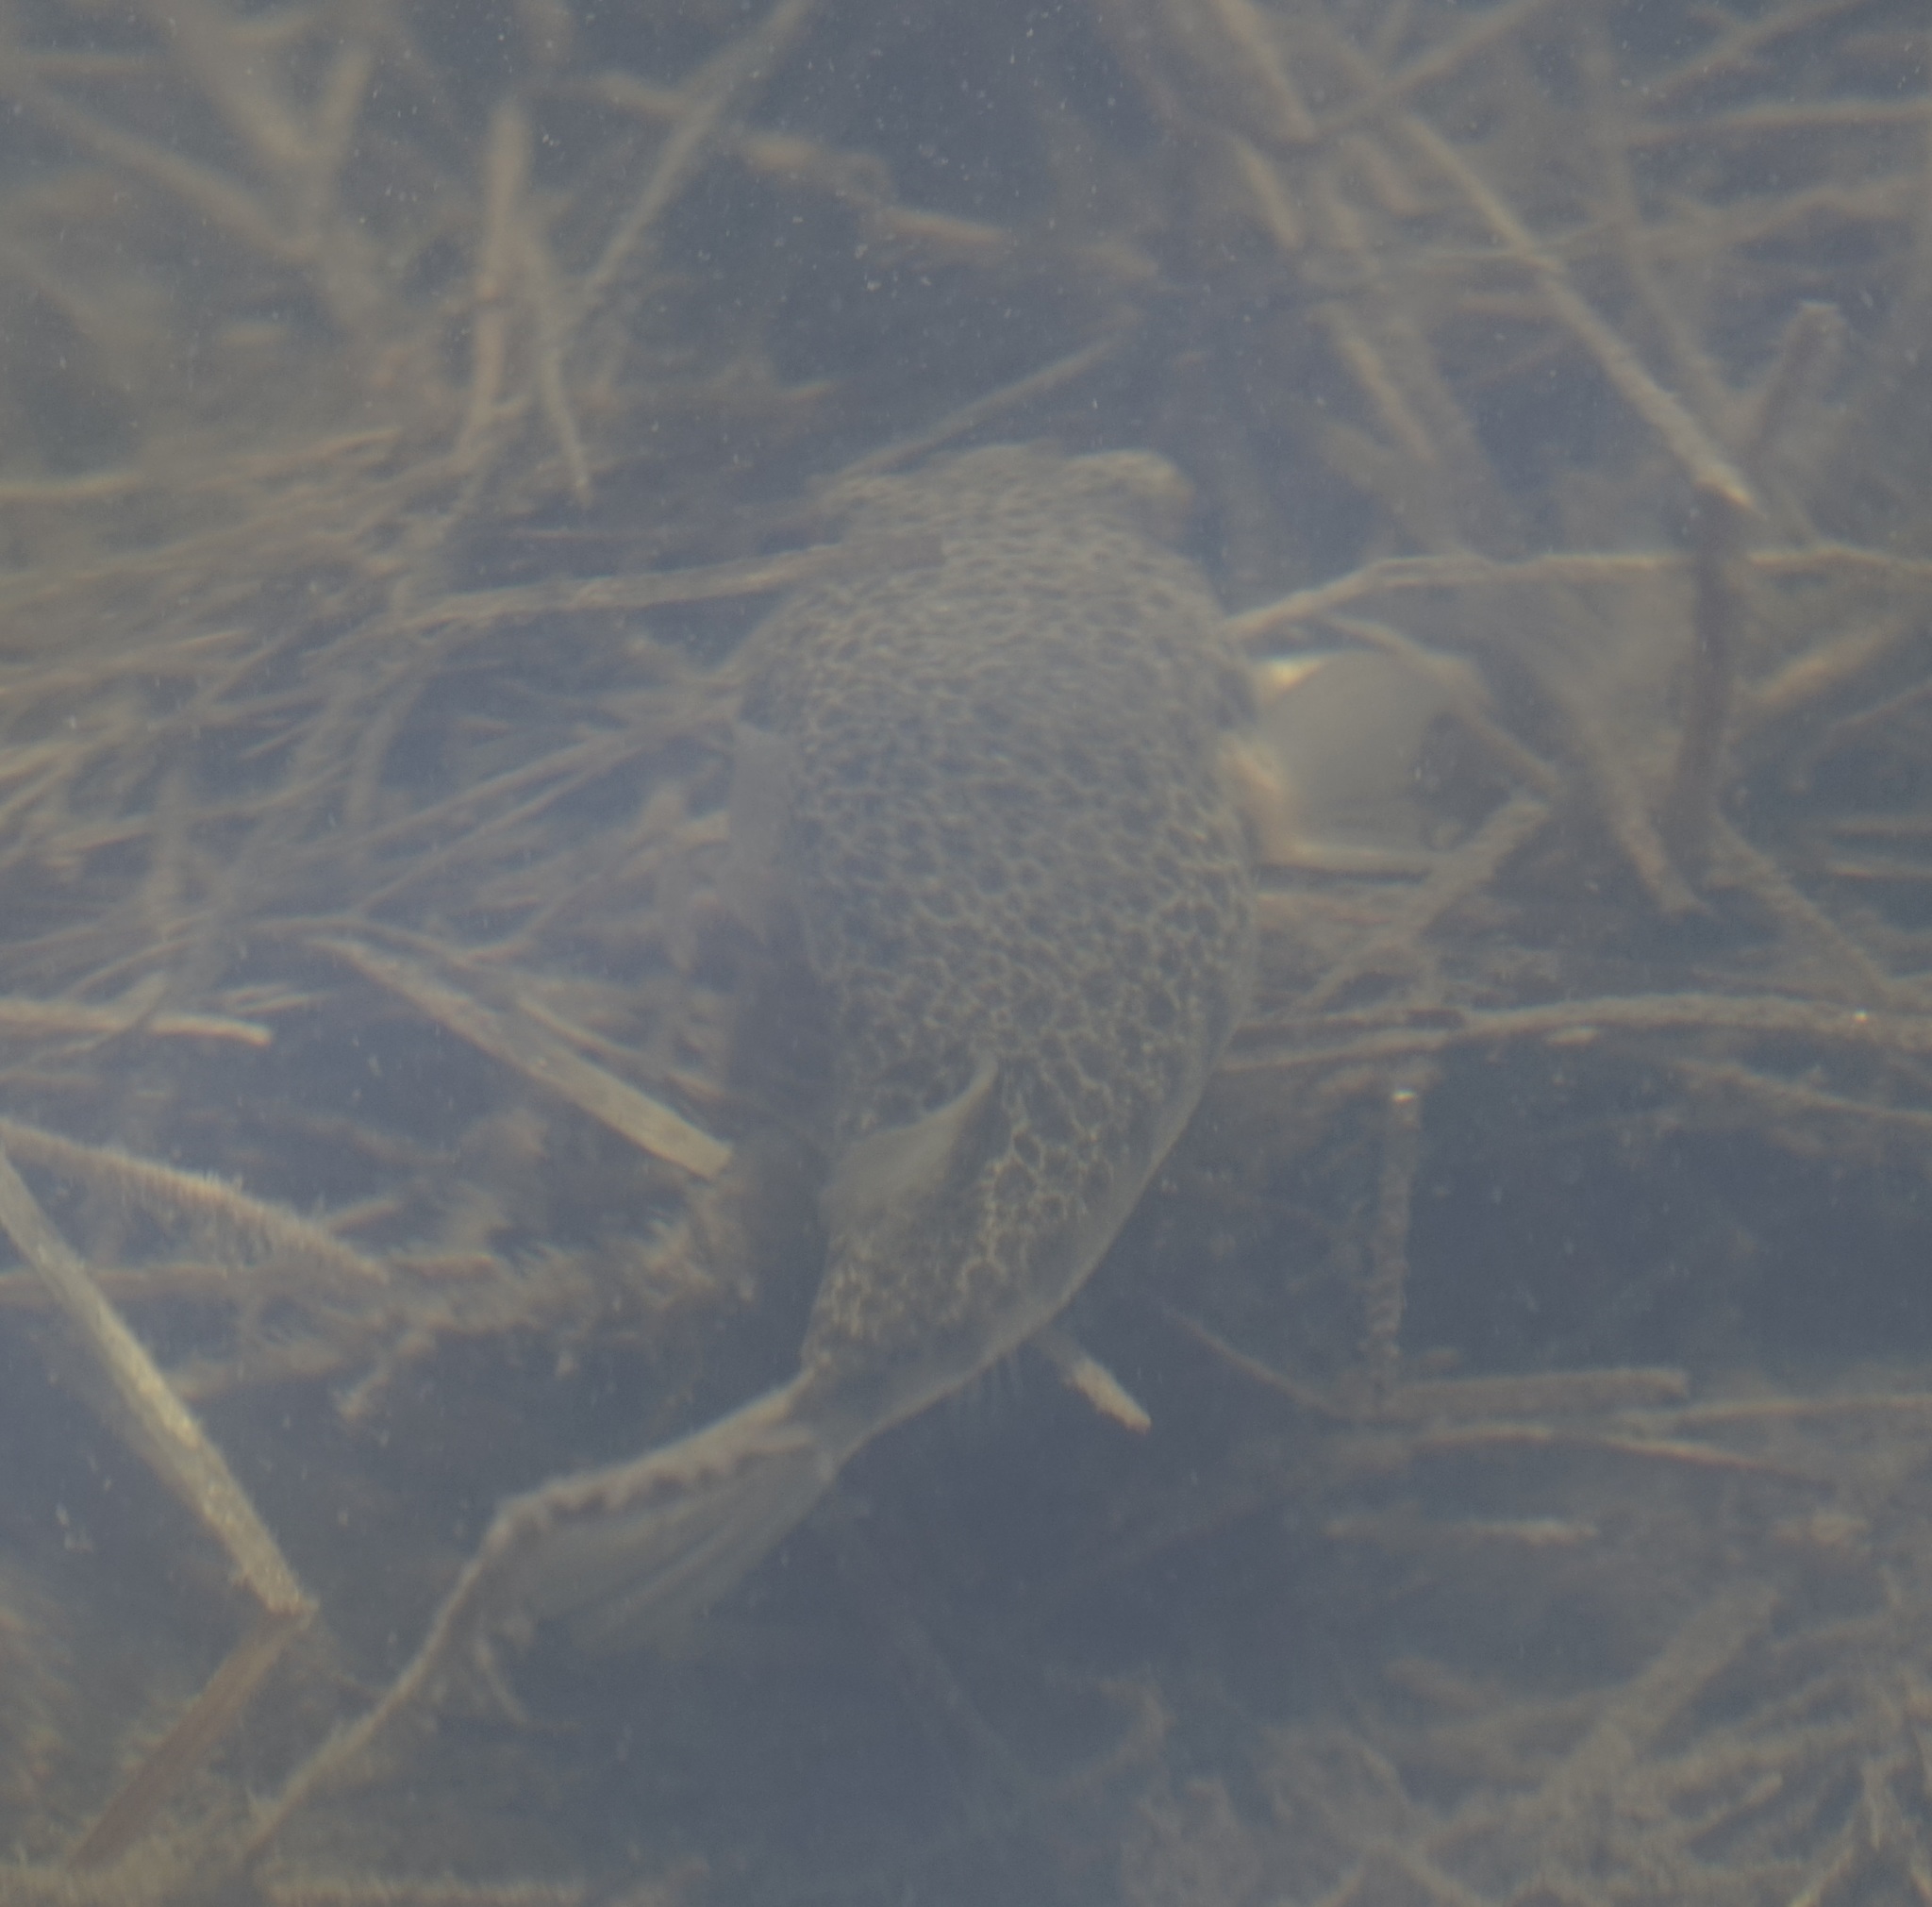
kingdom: Animalia
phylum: Chordata
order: Tetraodontiformes
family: Tetraodontidae
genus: Tetractenos
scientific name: Tetractenos hamiltoni
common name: Common toadfish
